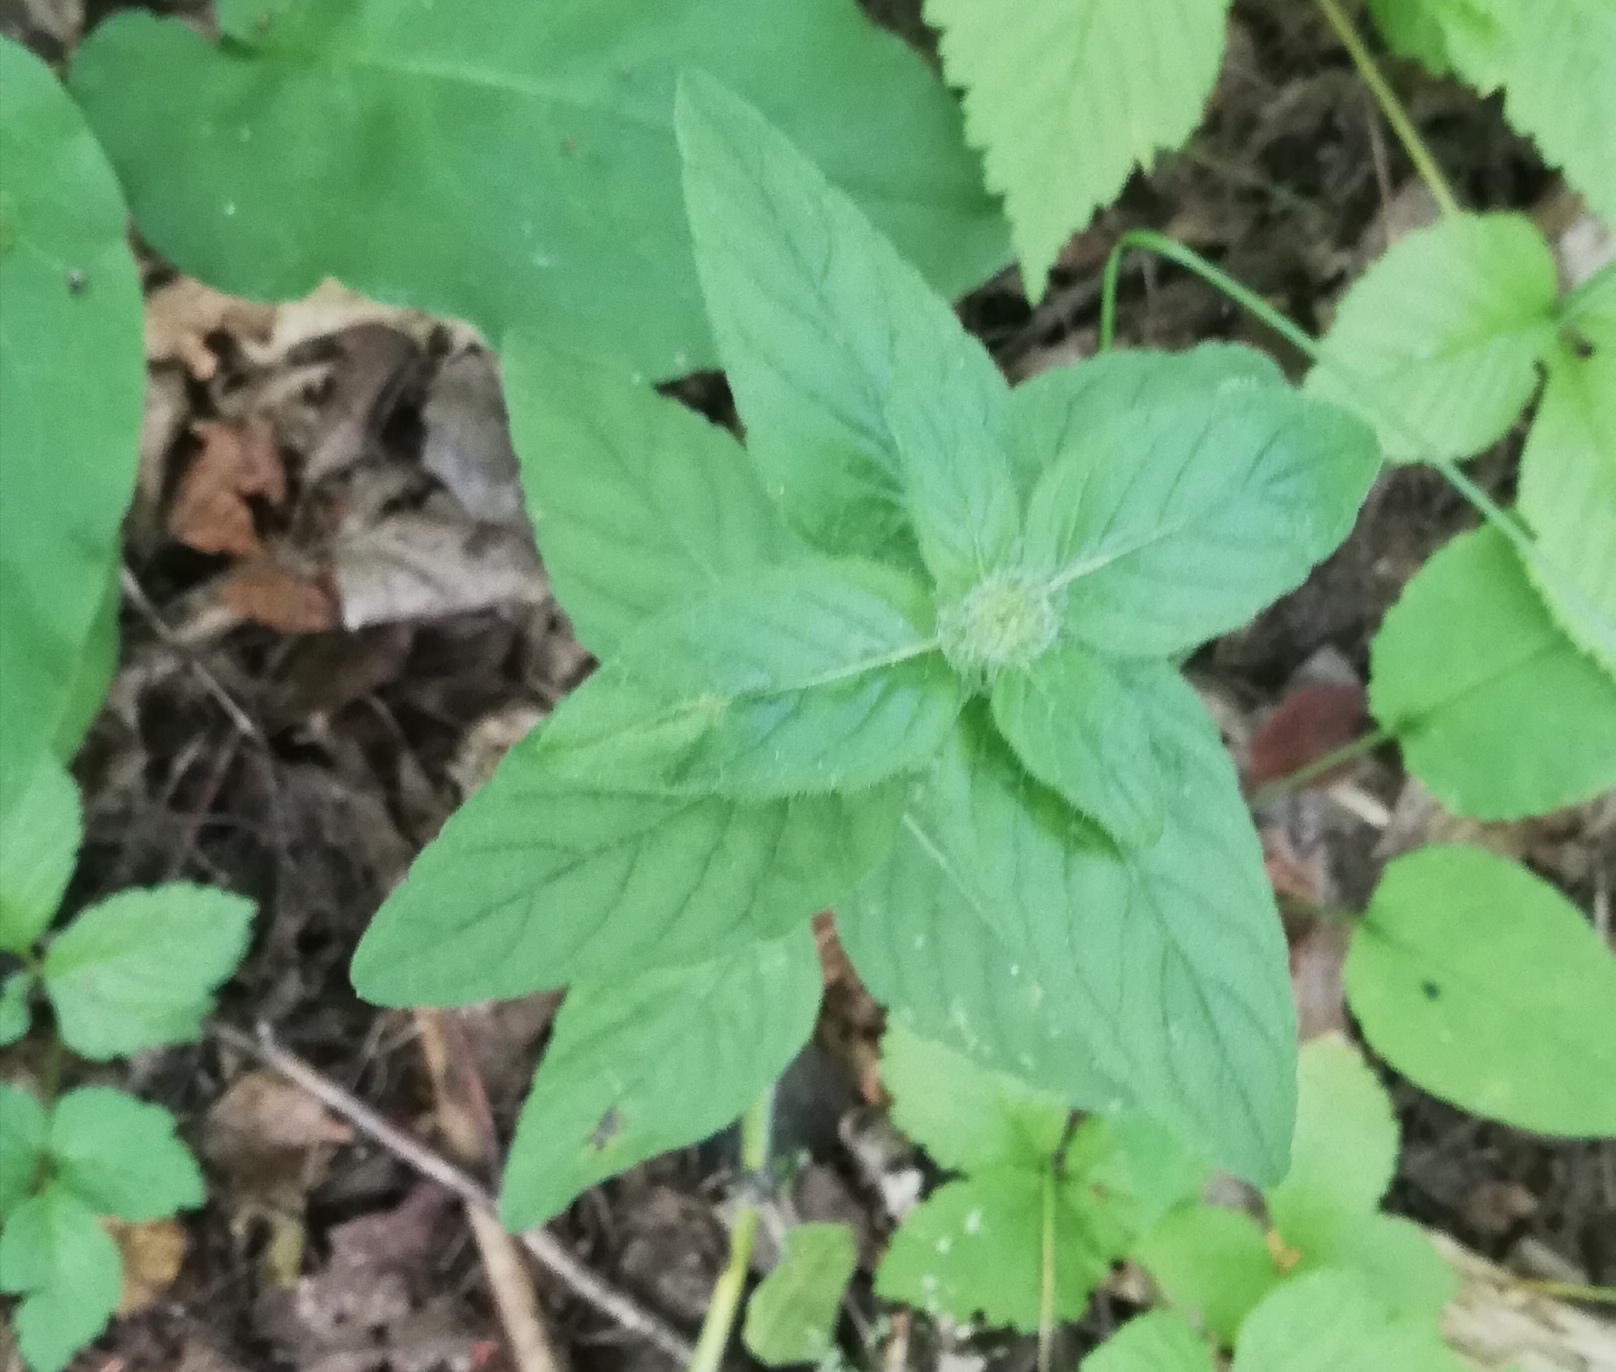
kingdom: Plantae
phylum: Tracheophyta
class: Magnoliopsida
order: Lamiales
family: Lamiaceae
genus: Clinopodium
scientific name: Clinopodium vulgare
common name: Wild basil
